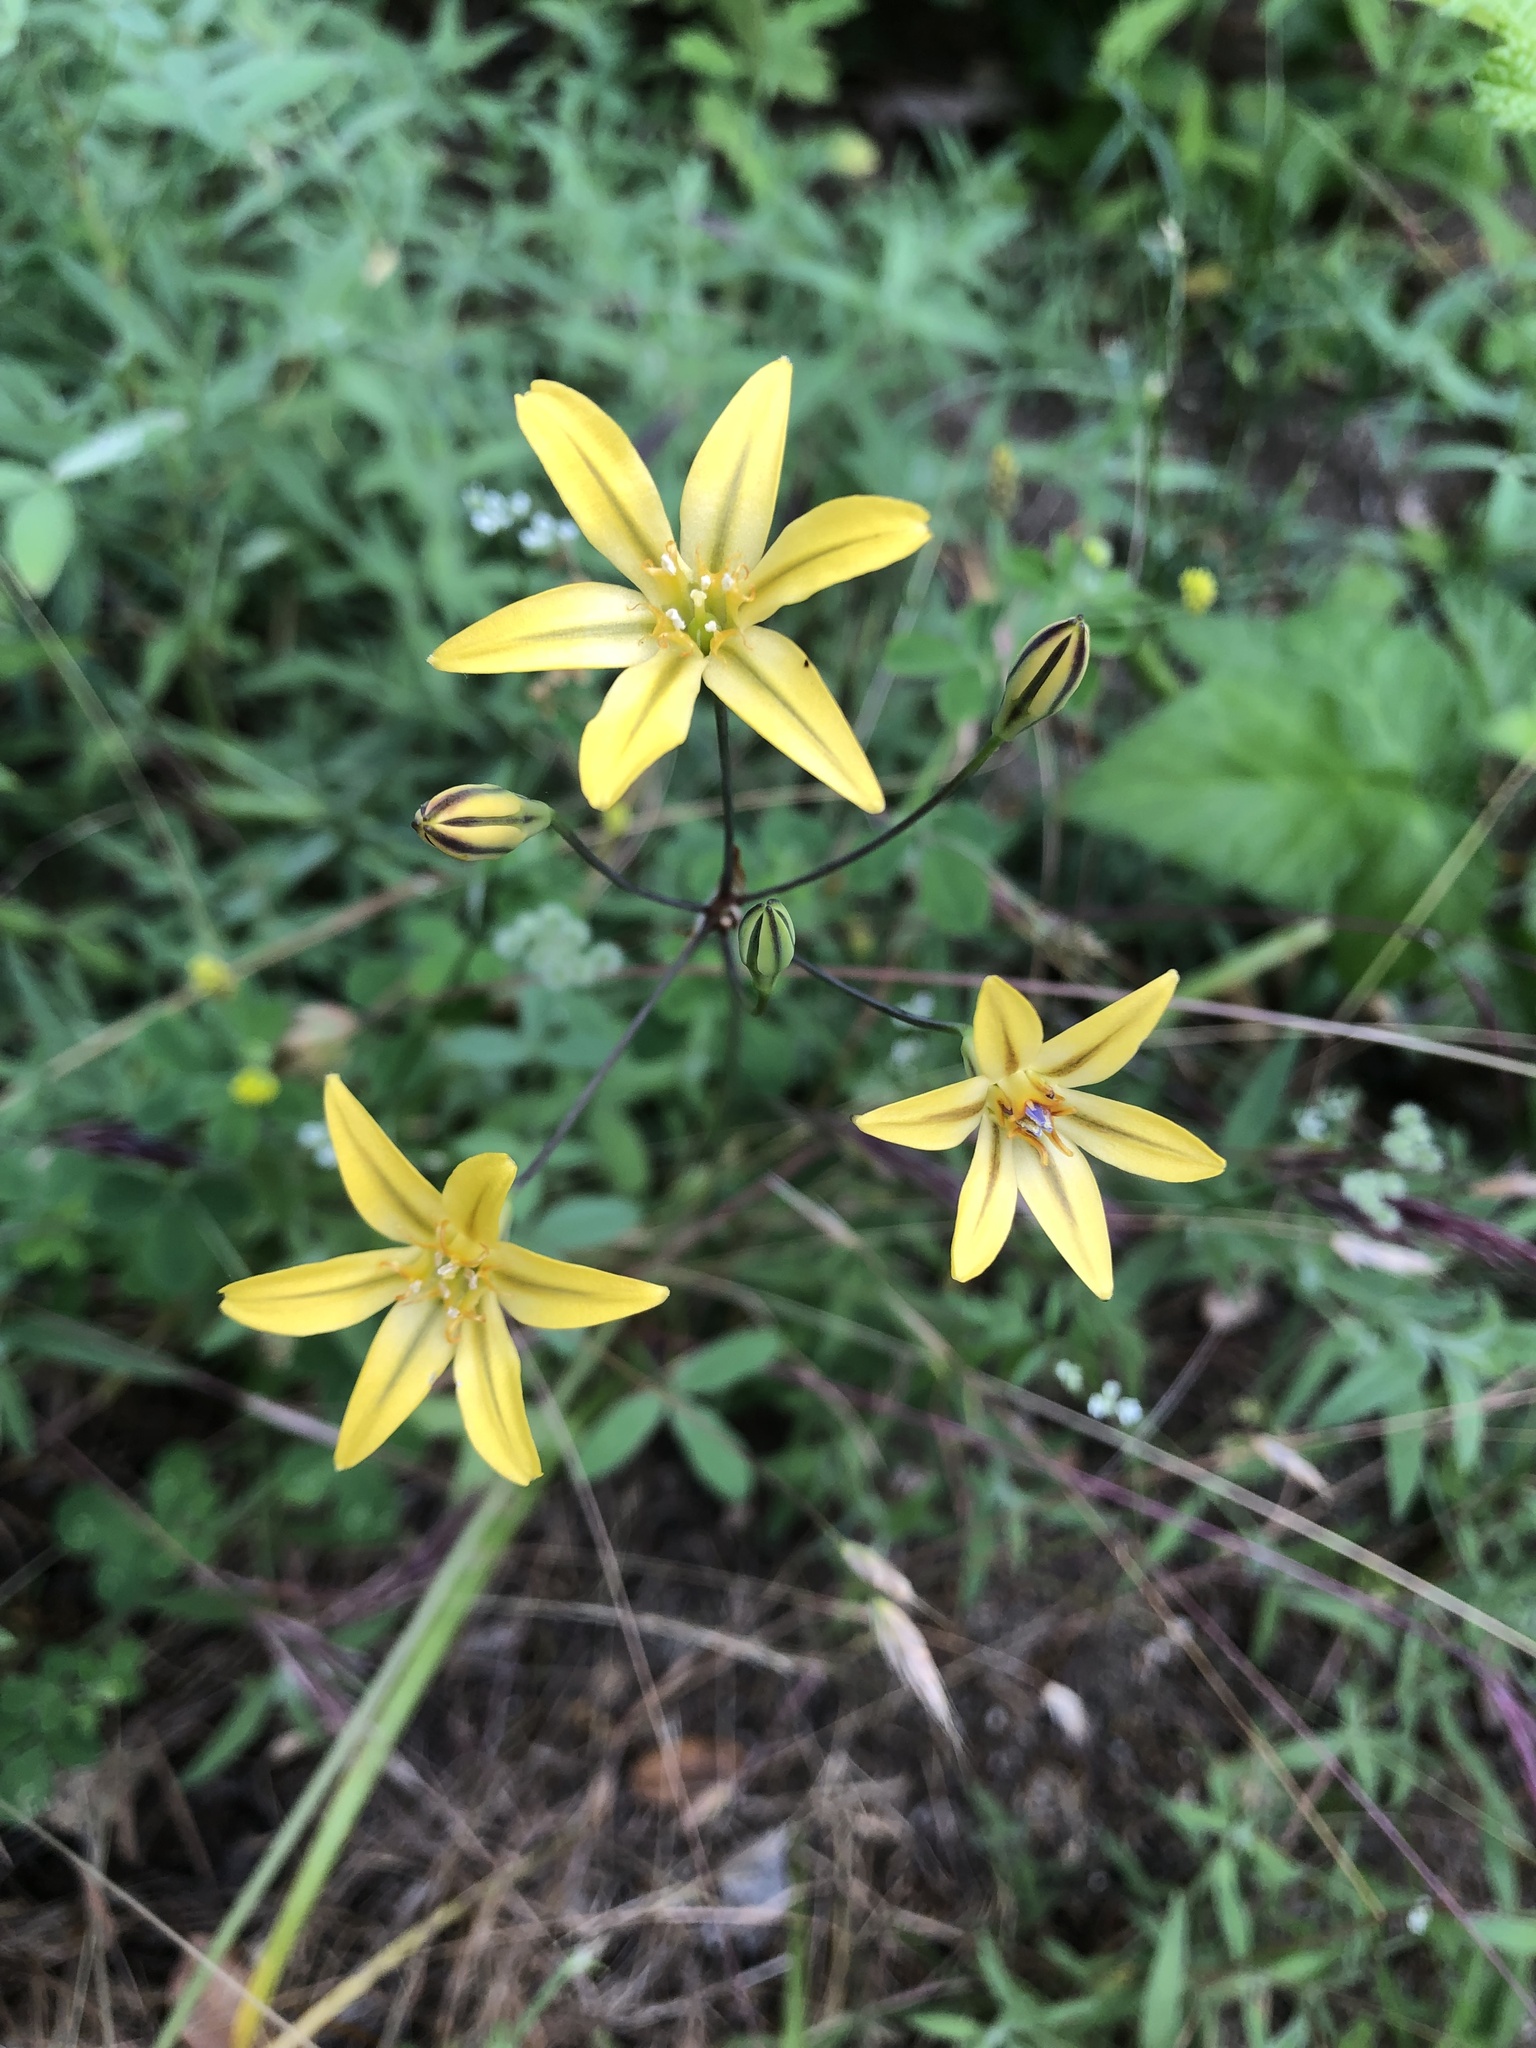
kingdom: Plantae
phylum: Tracheophyta
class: Liliopsida
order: Asparagales
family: Asparagaceae
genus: Triteleia
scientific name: Triteleia ixioides
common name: Yellow-brodiaea
